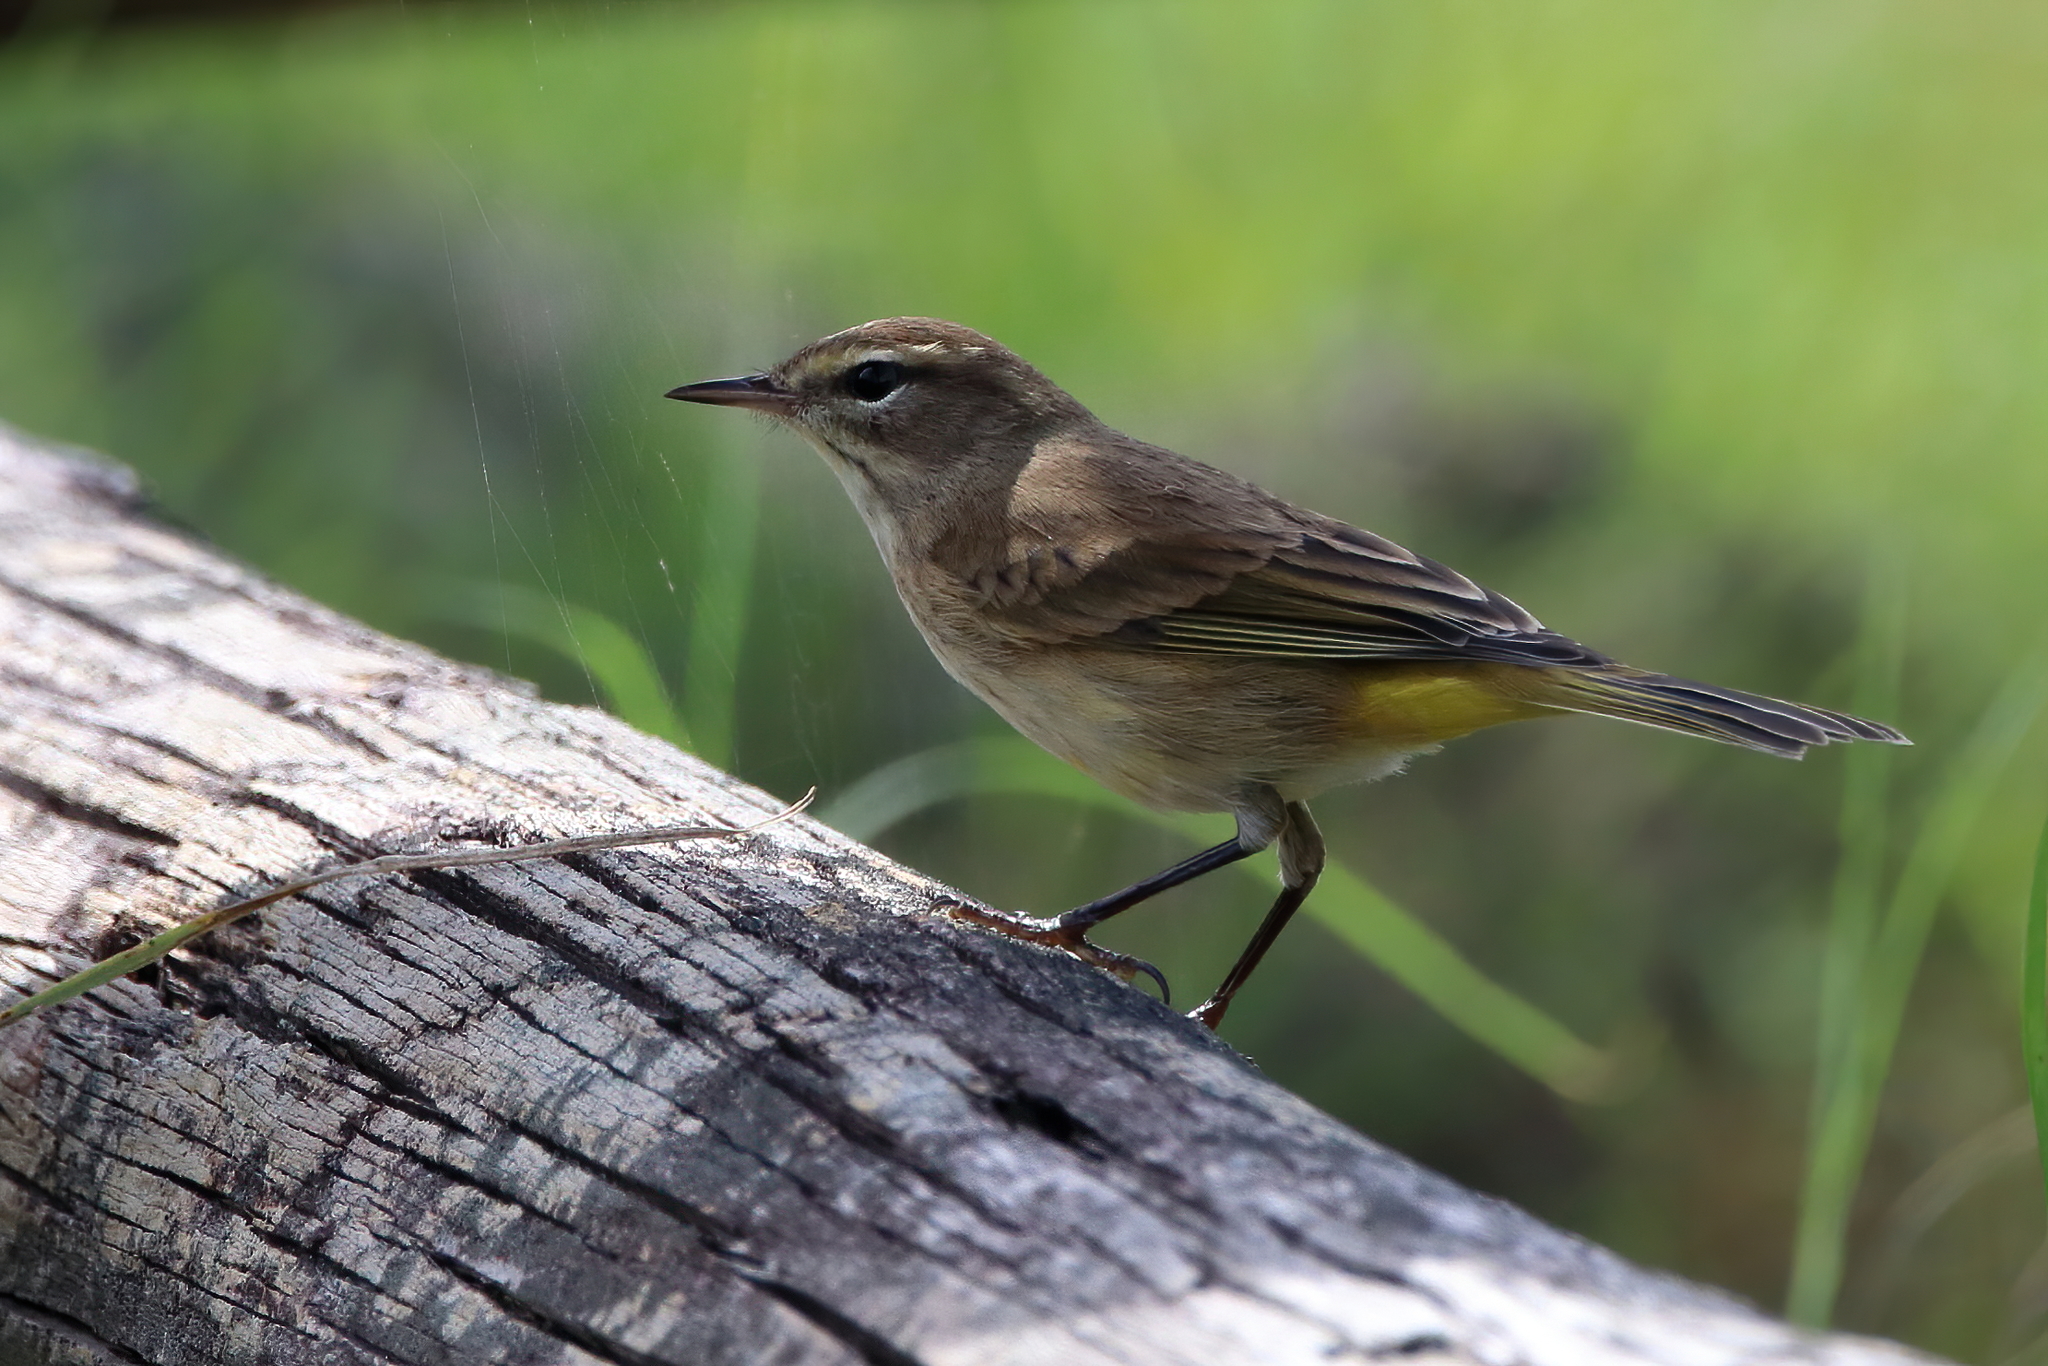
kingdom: Animalia
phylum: Chordata
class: Aves
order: Passeriformes
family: Parulidae
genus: Setophaga
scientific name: Setophaga palmarum
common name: Palm warbler
